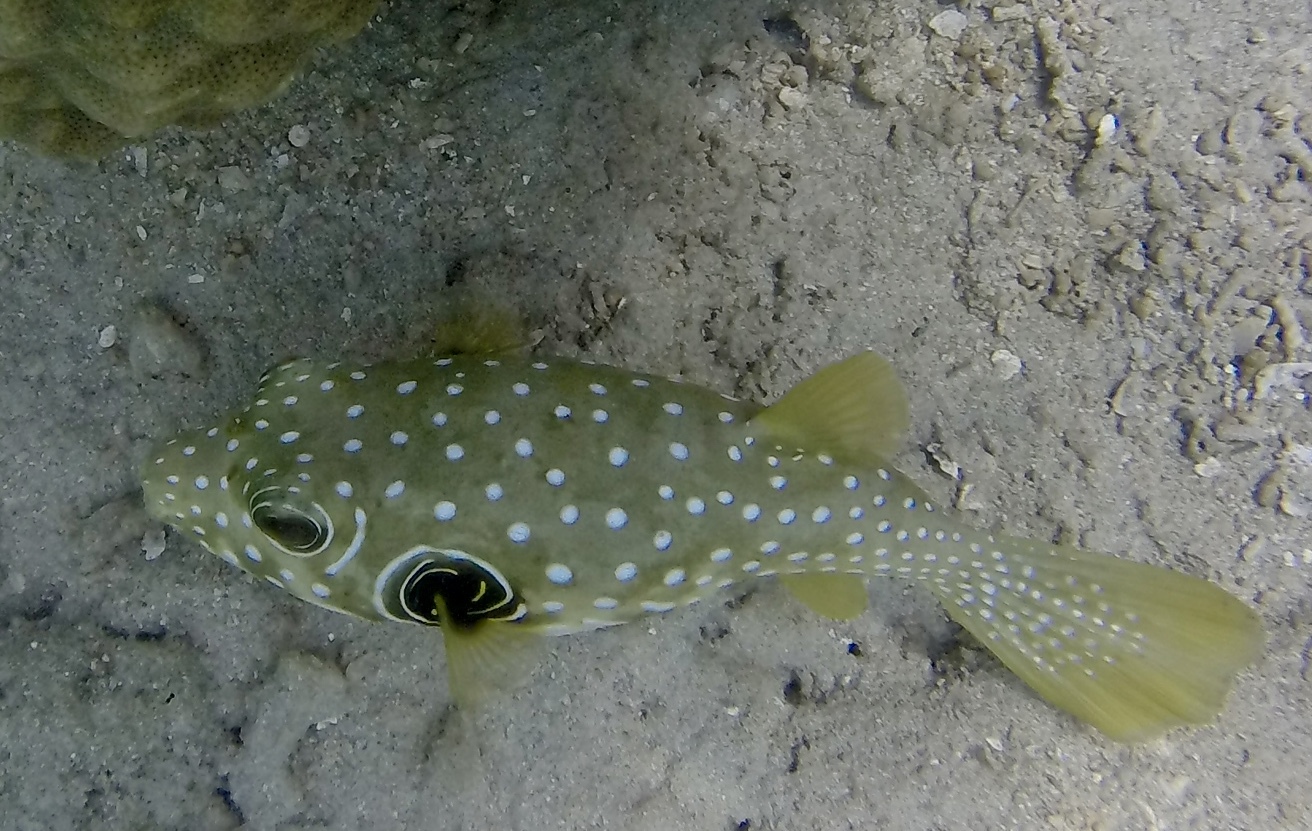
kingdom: Animalia
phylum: Chordata
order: Tetraodontiformes
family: Tetraodontidae
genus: Arothron
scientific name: Arothron hispidus
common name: Stripebelly puffer
